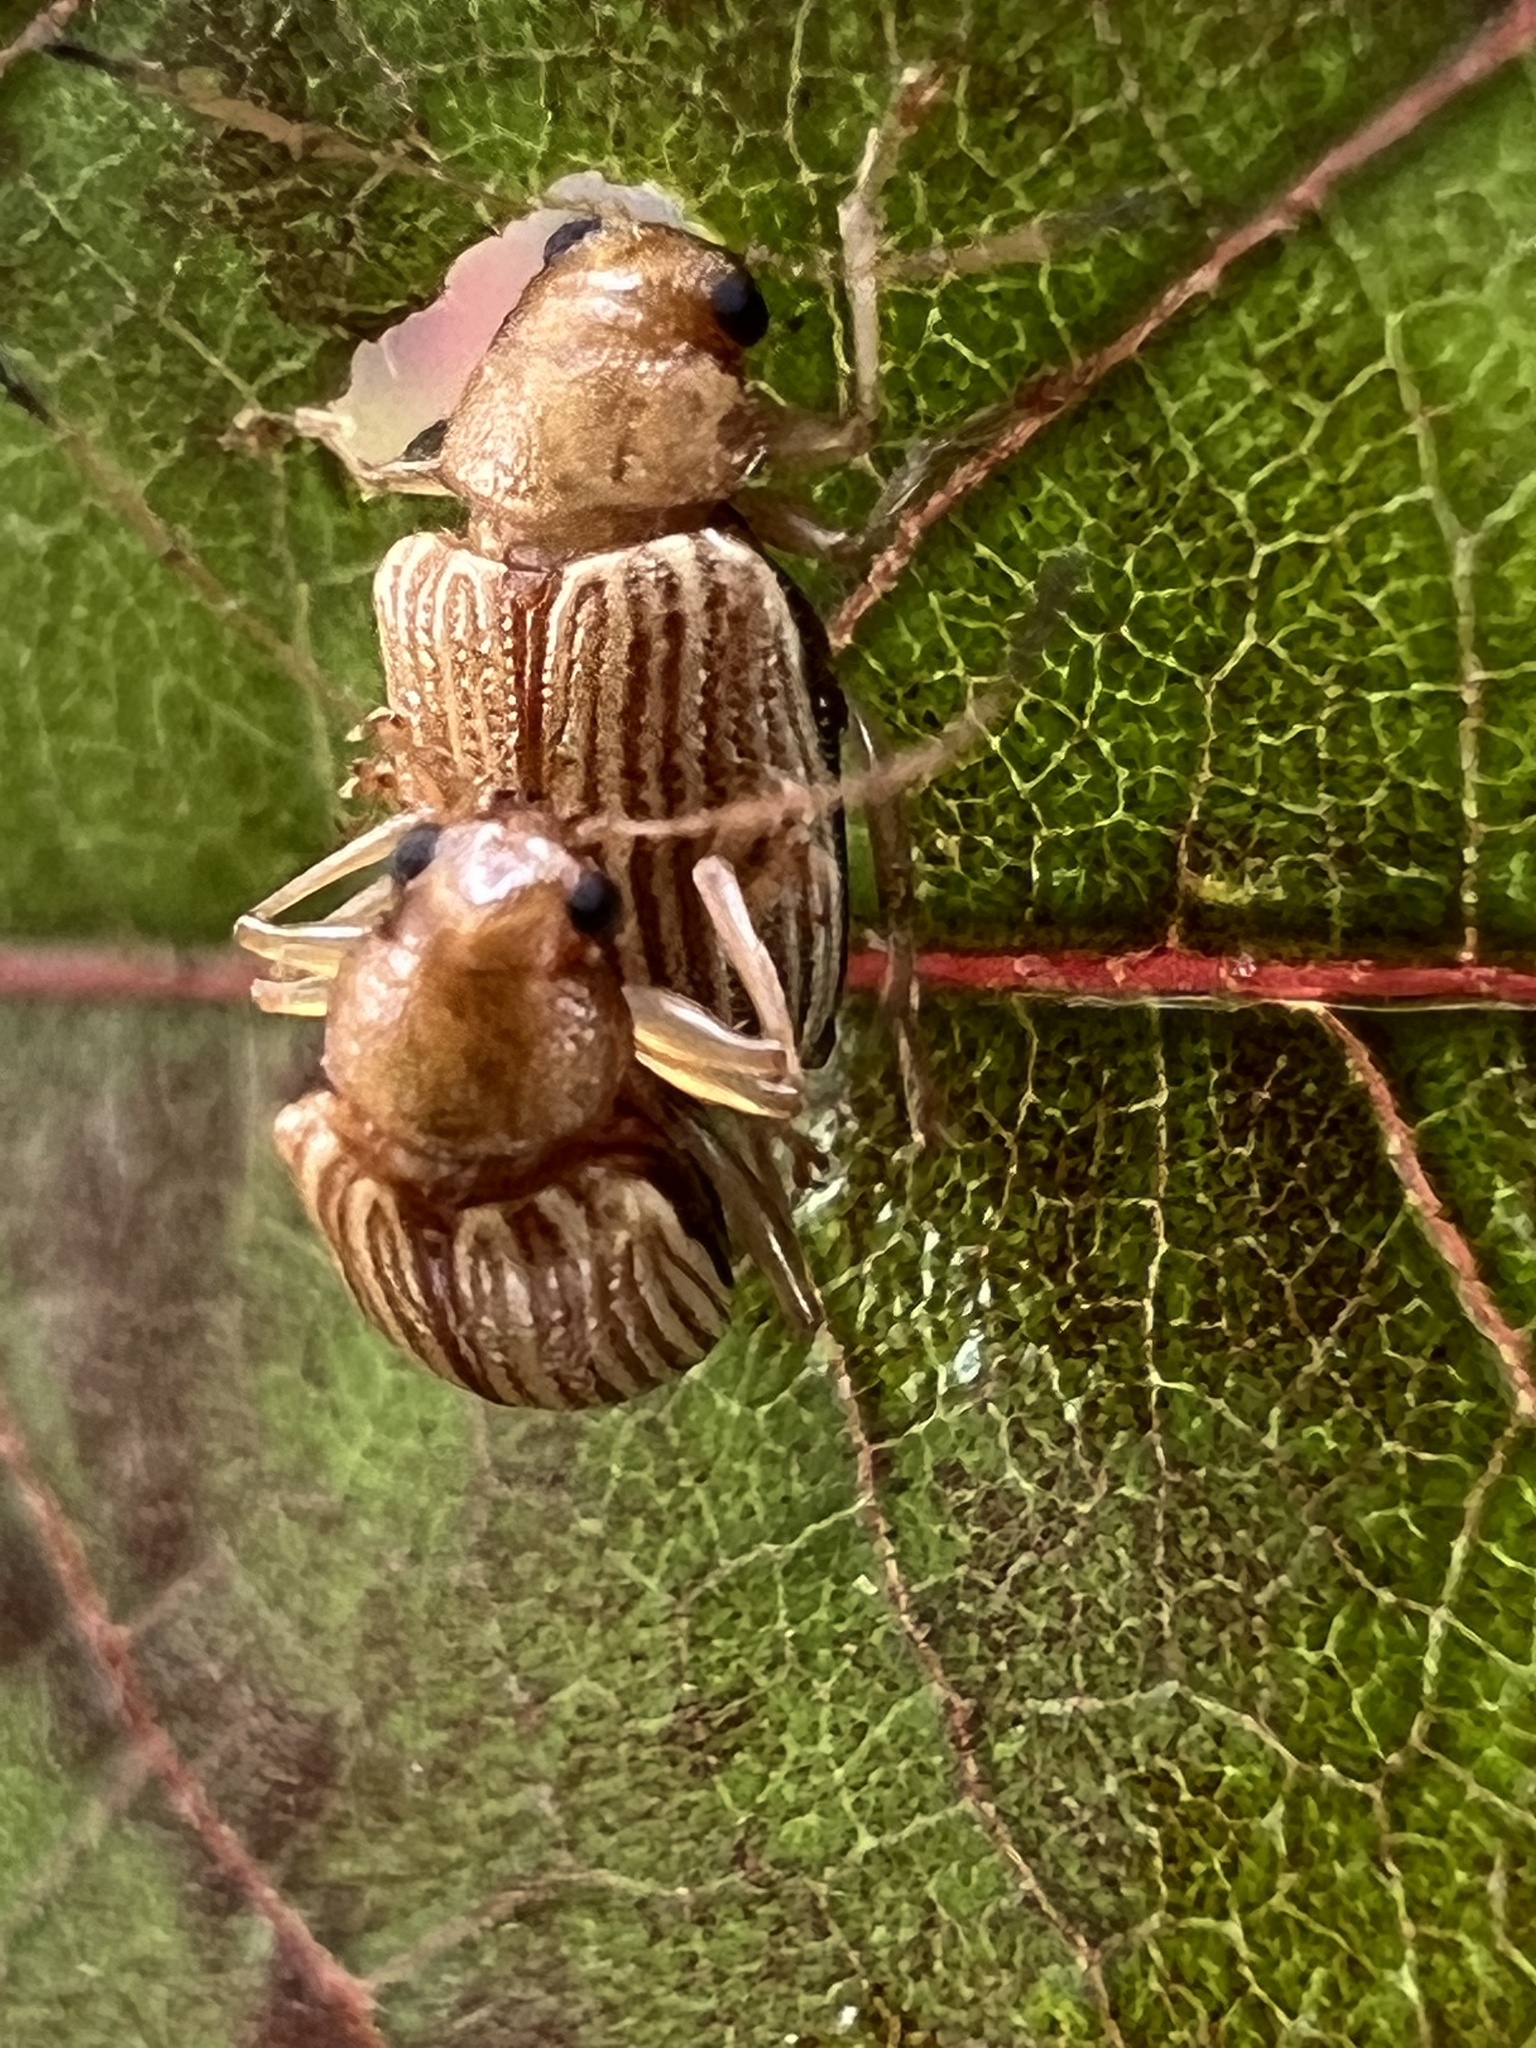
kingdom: Animalia
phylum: Arthropoda
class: Insecta
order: Coleoptera
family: Chrysomelidae
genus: Colaspis
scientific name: Colaspis brunnea
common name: Grape colaspis
